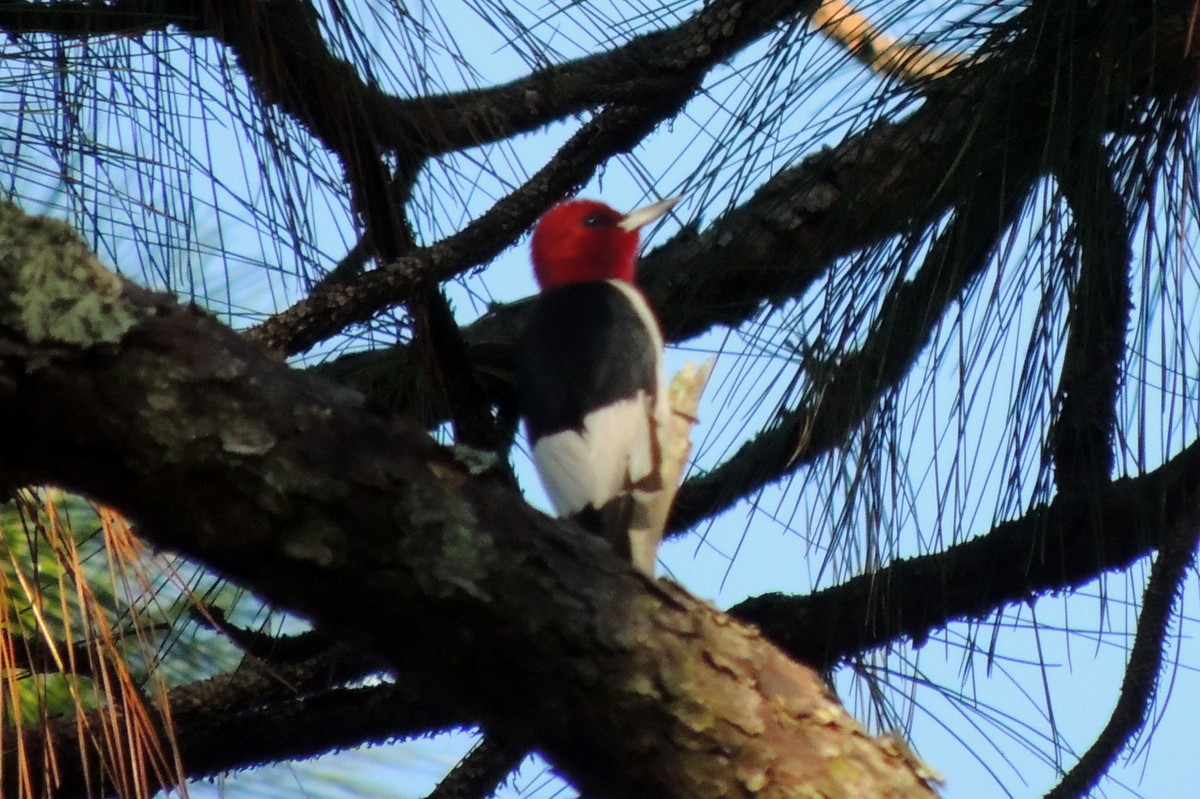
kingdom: Animalia
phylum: Chordata
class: Aves
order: Piciformes
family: Picidae
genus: Melanerpes
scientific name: Melanerpes erythrocephalus
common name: Red-headed woodpecker
